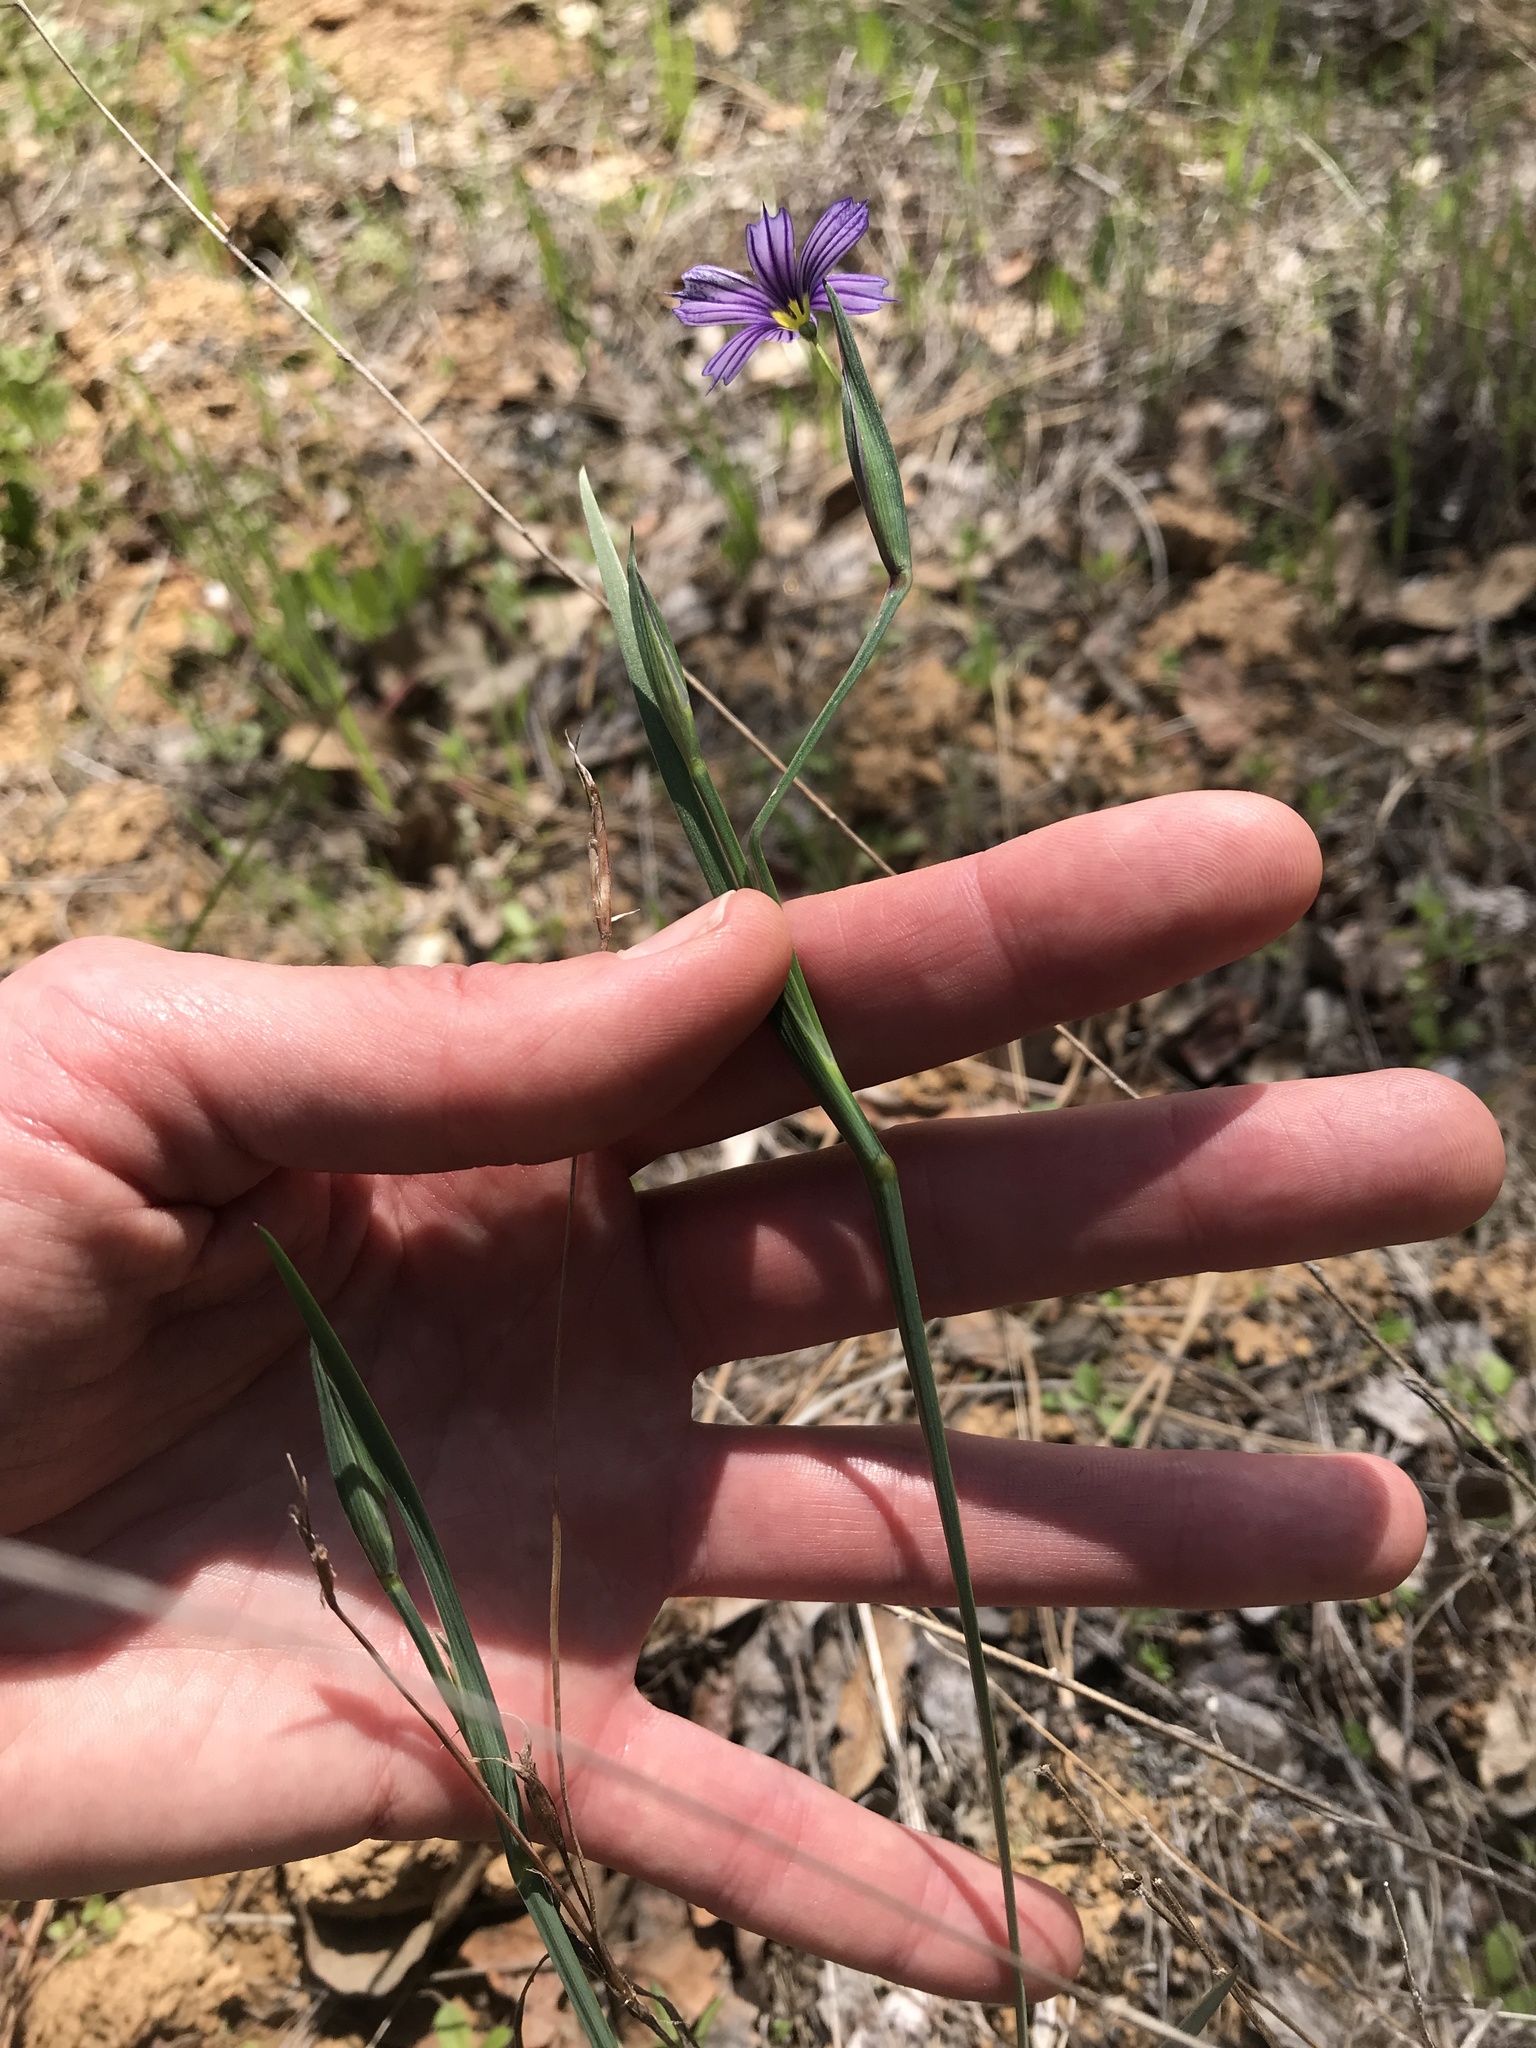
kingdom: Plantae
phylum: Tracheophyta
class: Liliopsida
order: Asparagales
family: Iridaceae
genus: Sisyrinchium
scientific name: Sisyrinchium bellum
